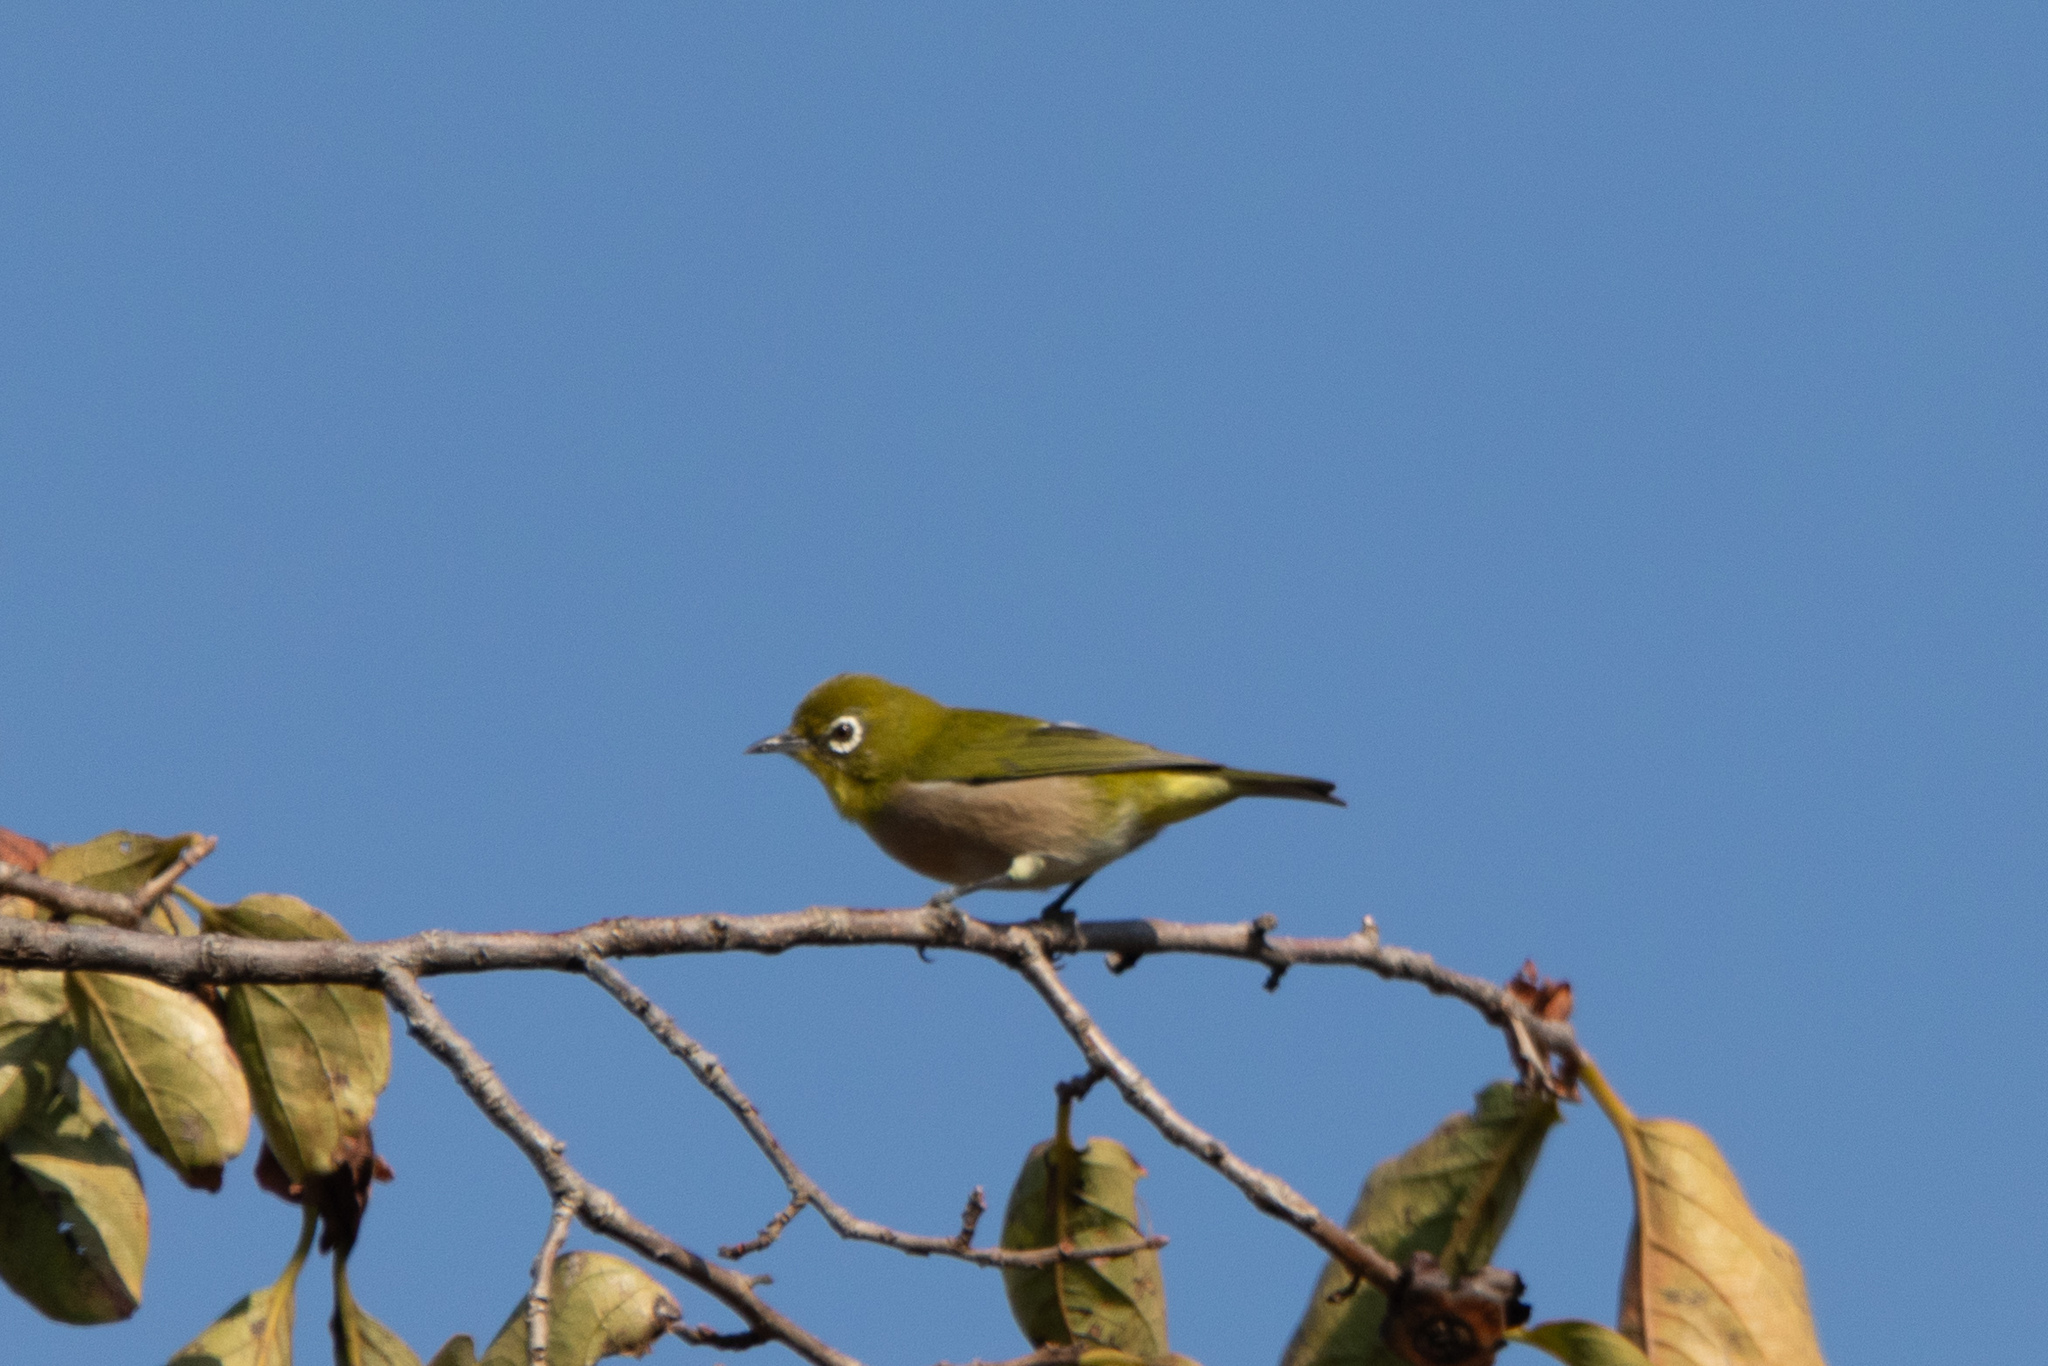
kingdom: Animalia
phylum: Chordata
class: Aves
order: Passeriformes
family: Zosteropidae
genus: Zosterops
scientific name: Zosterops japonicus
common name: Japanese white-eye
